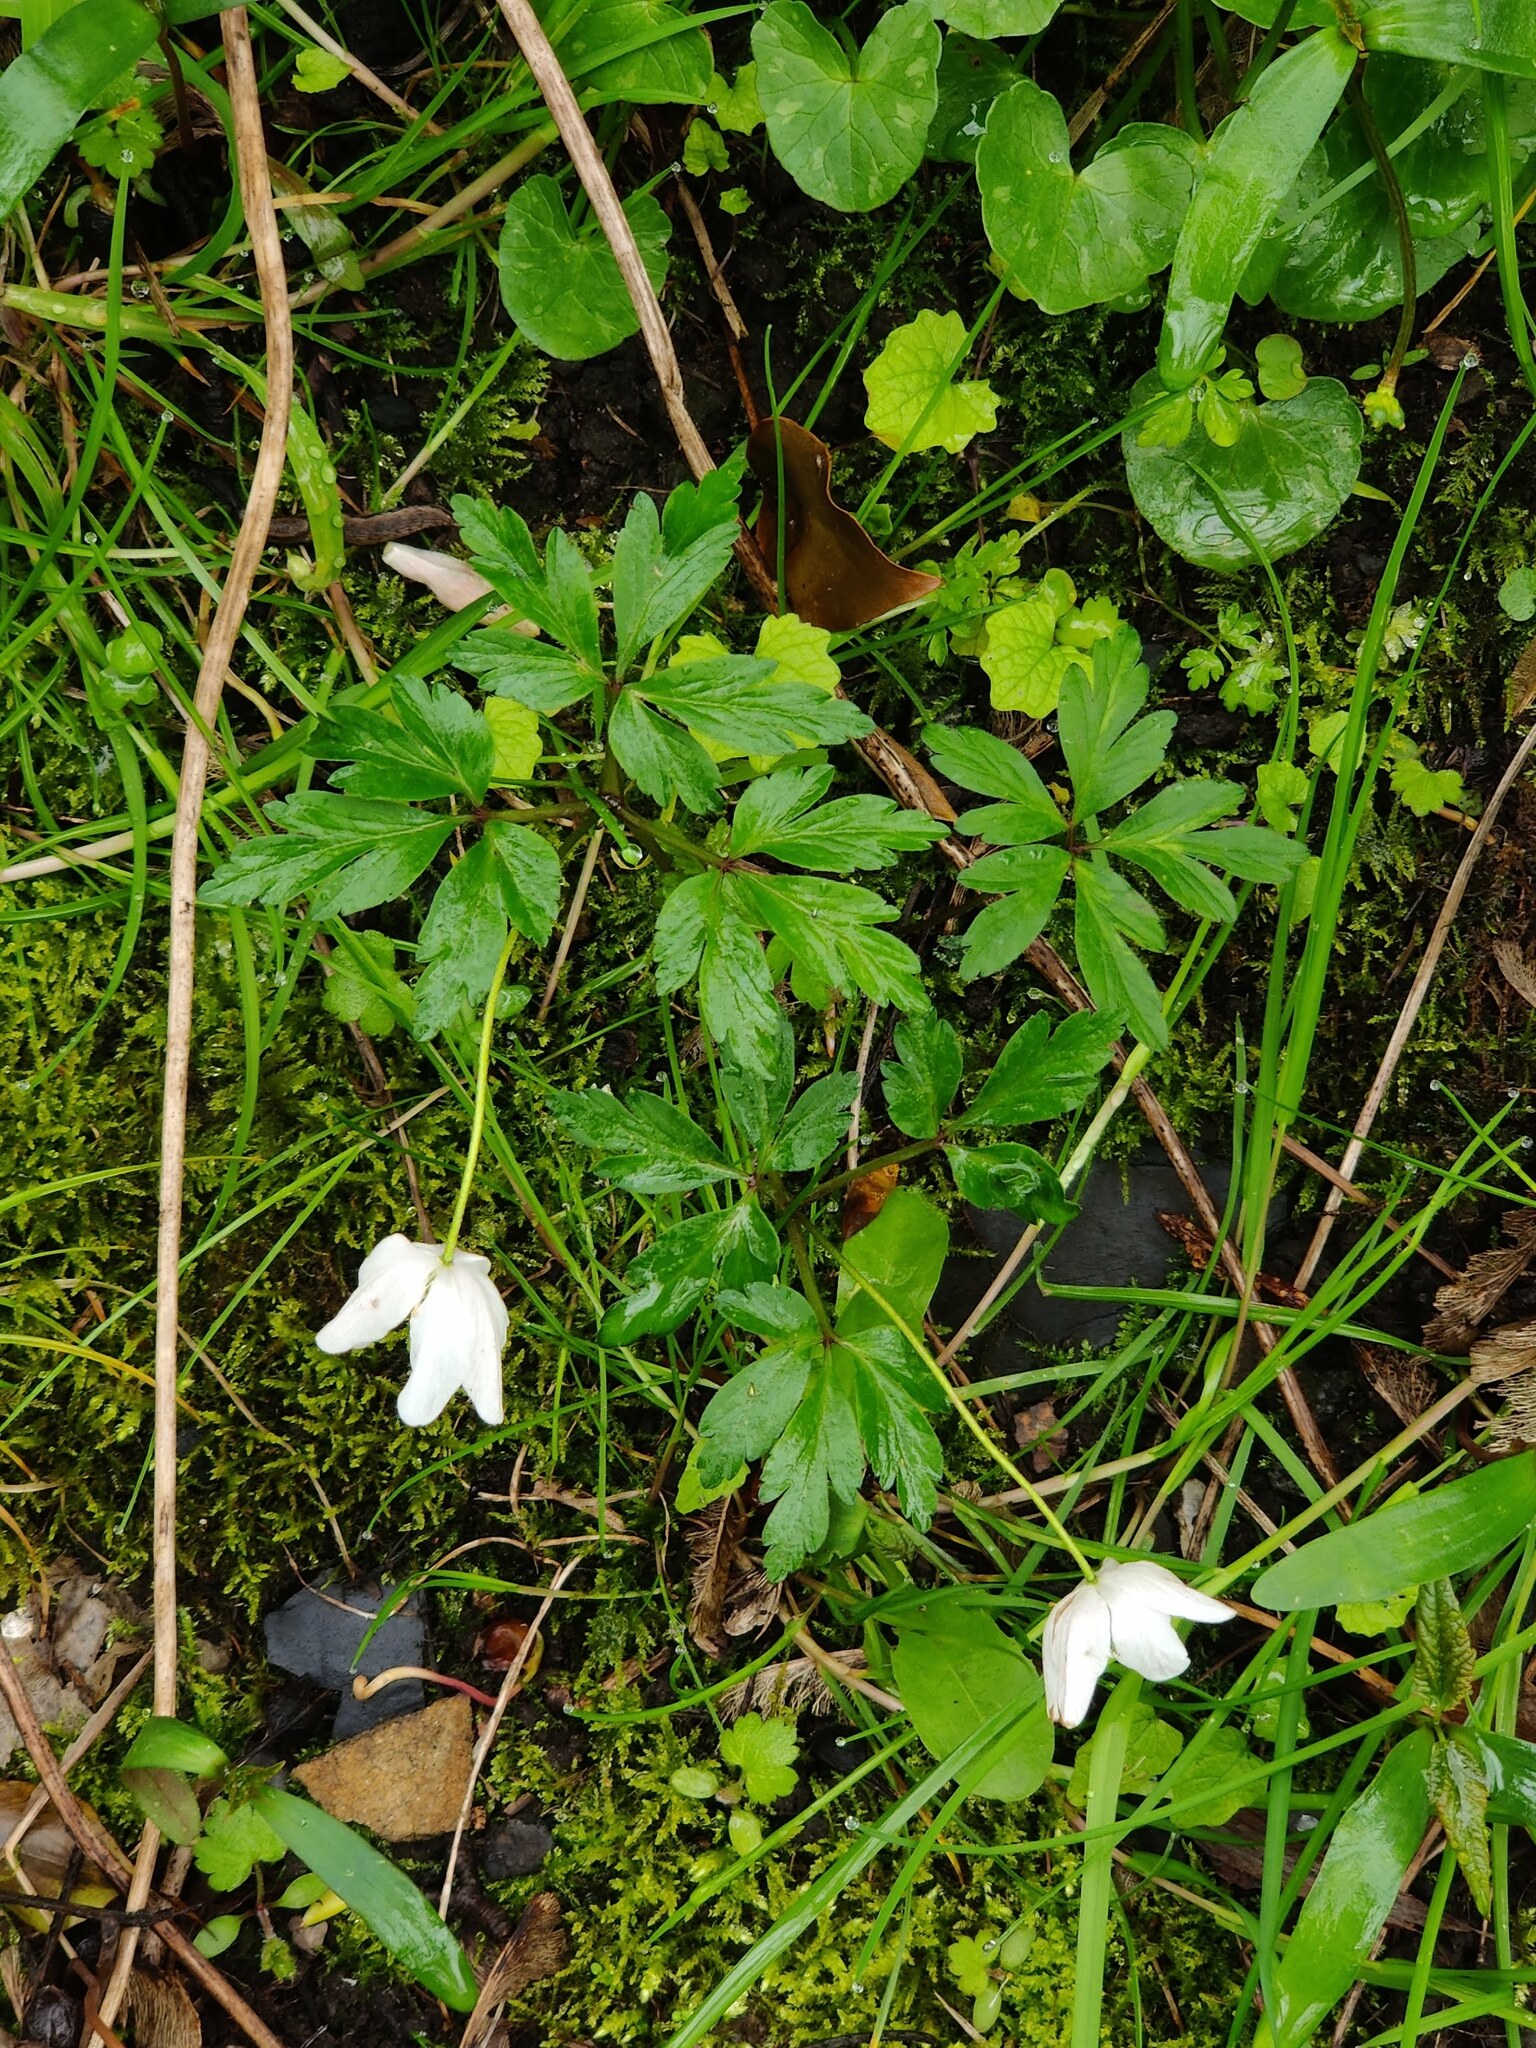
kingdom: Plantae
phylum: Tracheophyta
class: Magnoliopsida
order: Ranunculales
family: Ranunculaceae
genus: Anemone
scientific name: Anemone nemorosa
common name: Wood anemone
